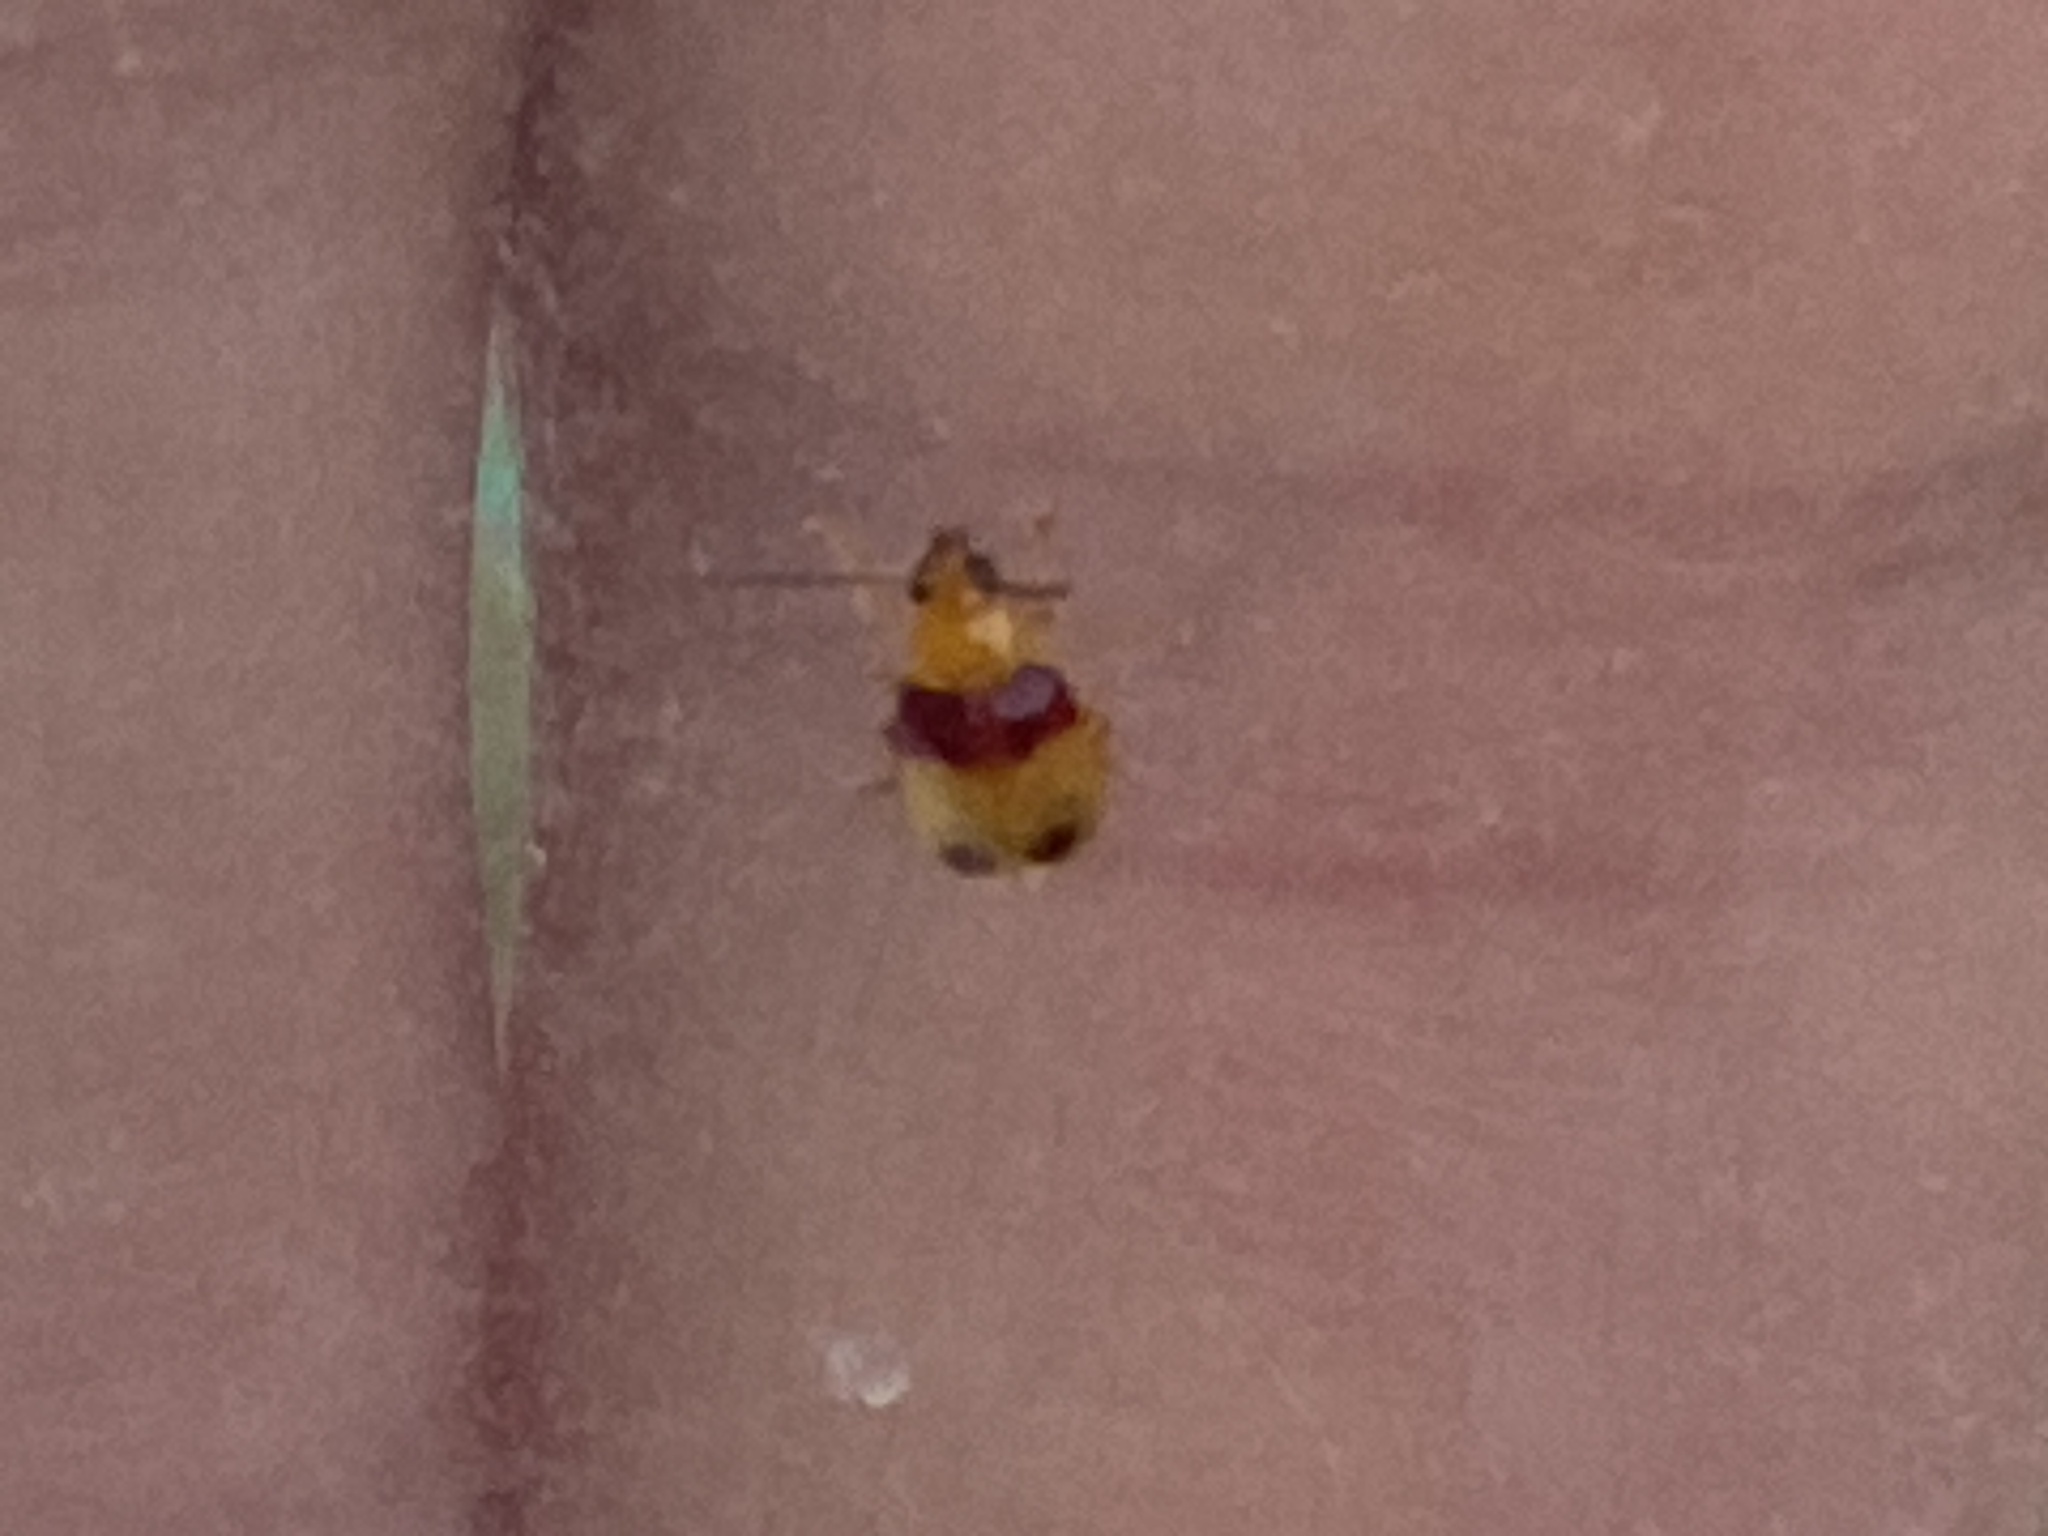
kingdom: Animalia
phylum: Arthropoda
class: Insecta
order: Coleoptera
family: Chrysomelidae
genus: Monolepta
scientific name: Monolepta
